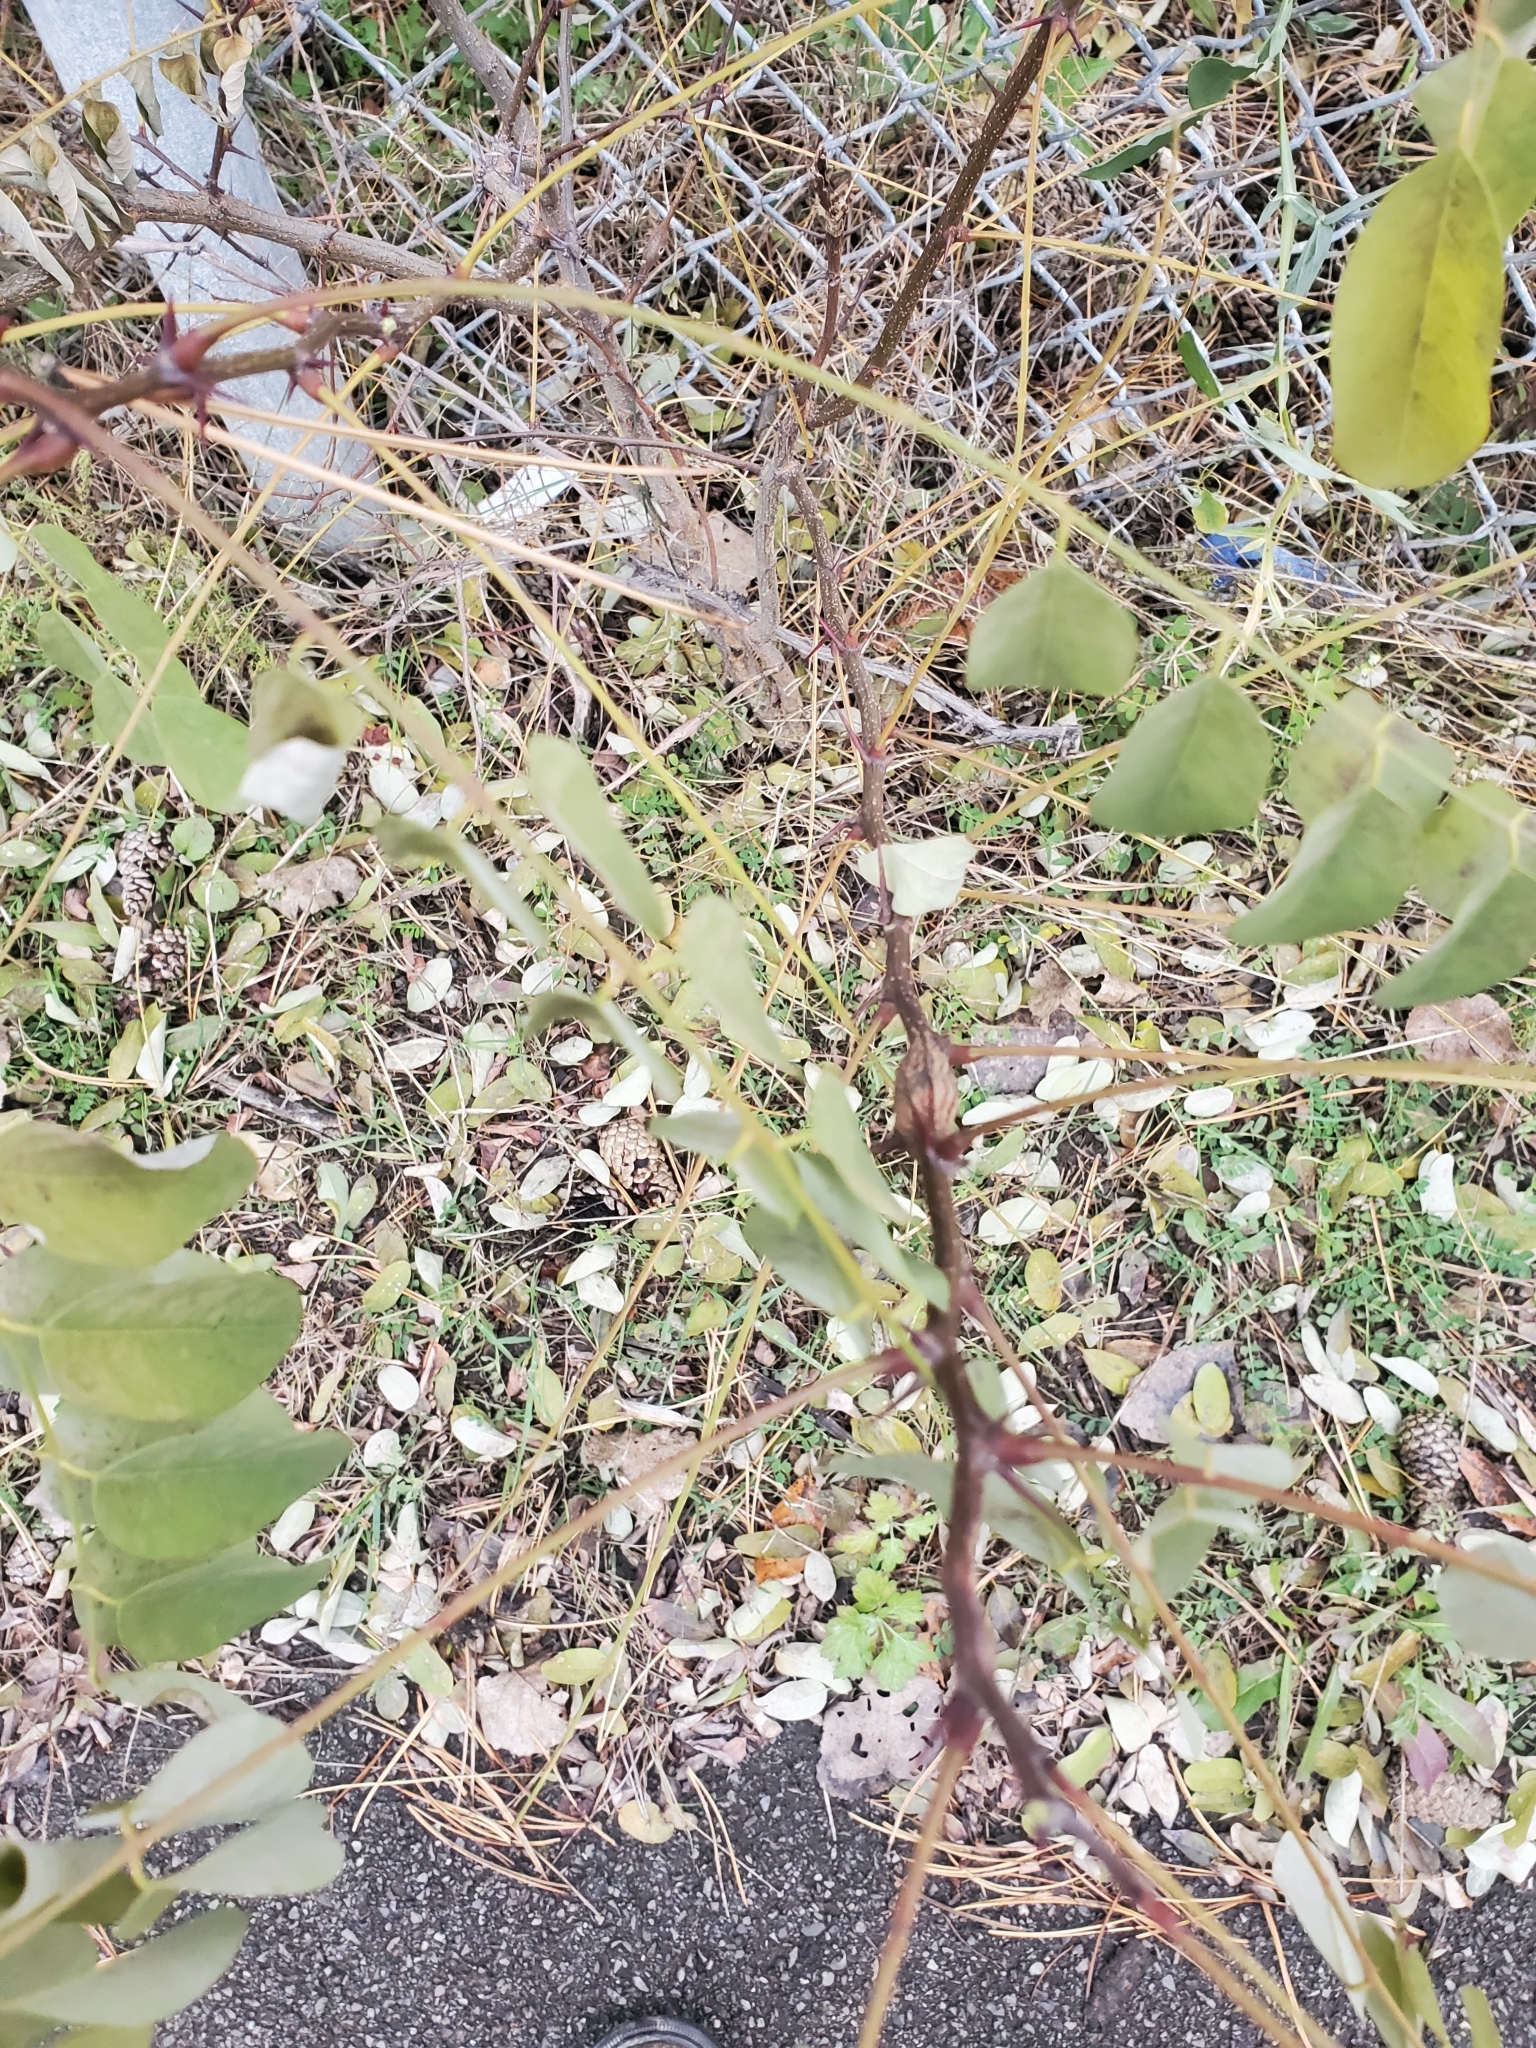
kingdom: Plantae
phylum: Tracheophyta
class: Magnoliopsida
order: Fabales
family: Fabaceae
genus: Robinia
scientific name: Robinia pseudoacacia
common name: Black locust
